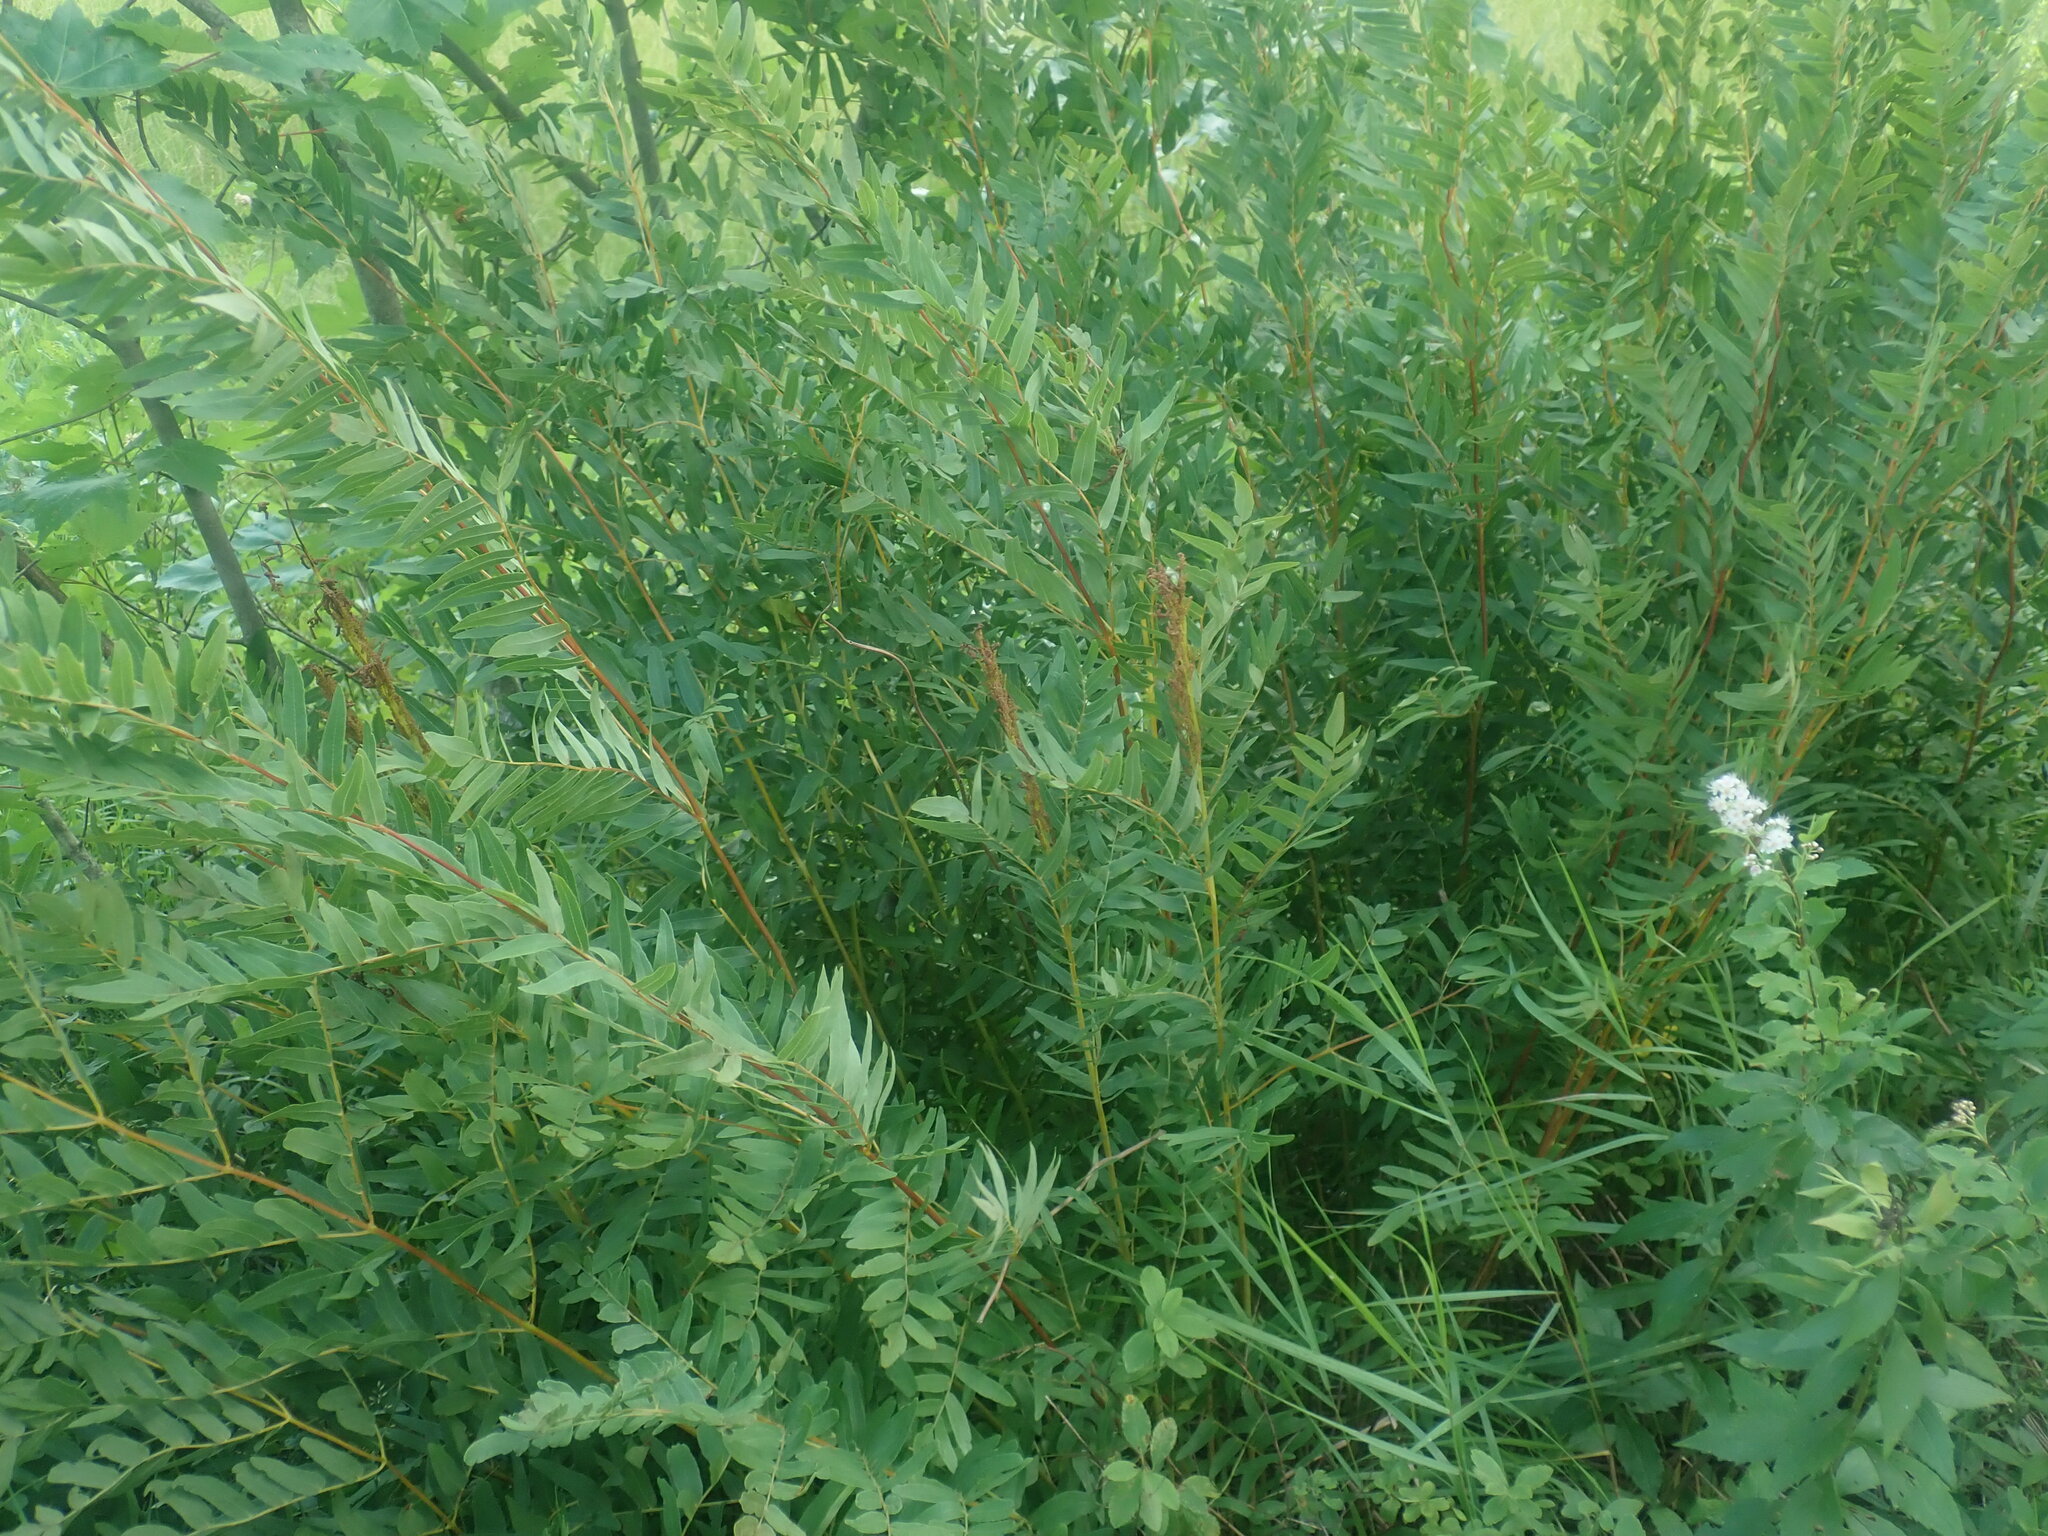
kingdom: Plantae
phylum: Tracheophyta
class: Polypodiopsida
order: Osmundales
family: Osmundaceae
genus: Osmunda
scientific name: Osmunda spectabilis
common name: American royal fern
